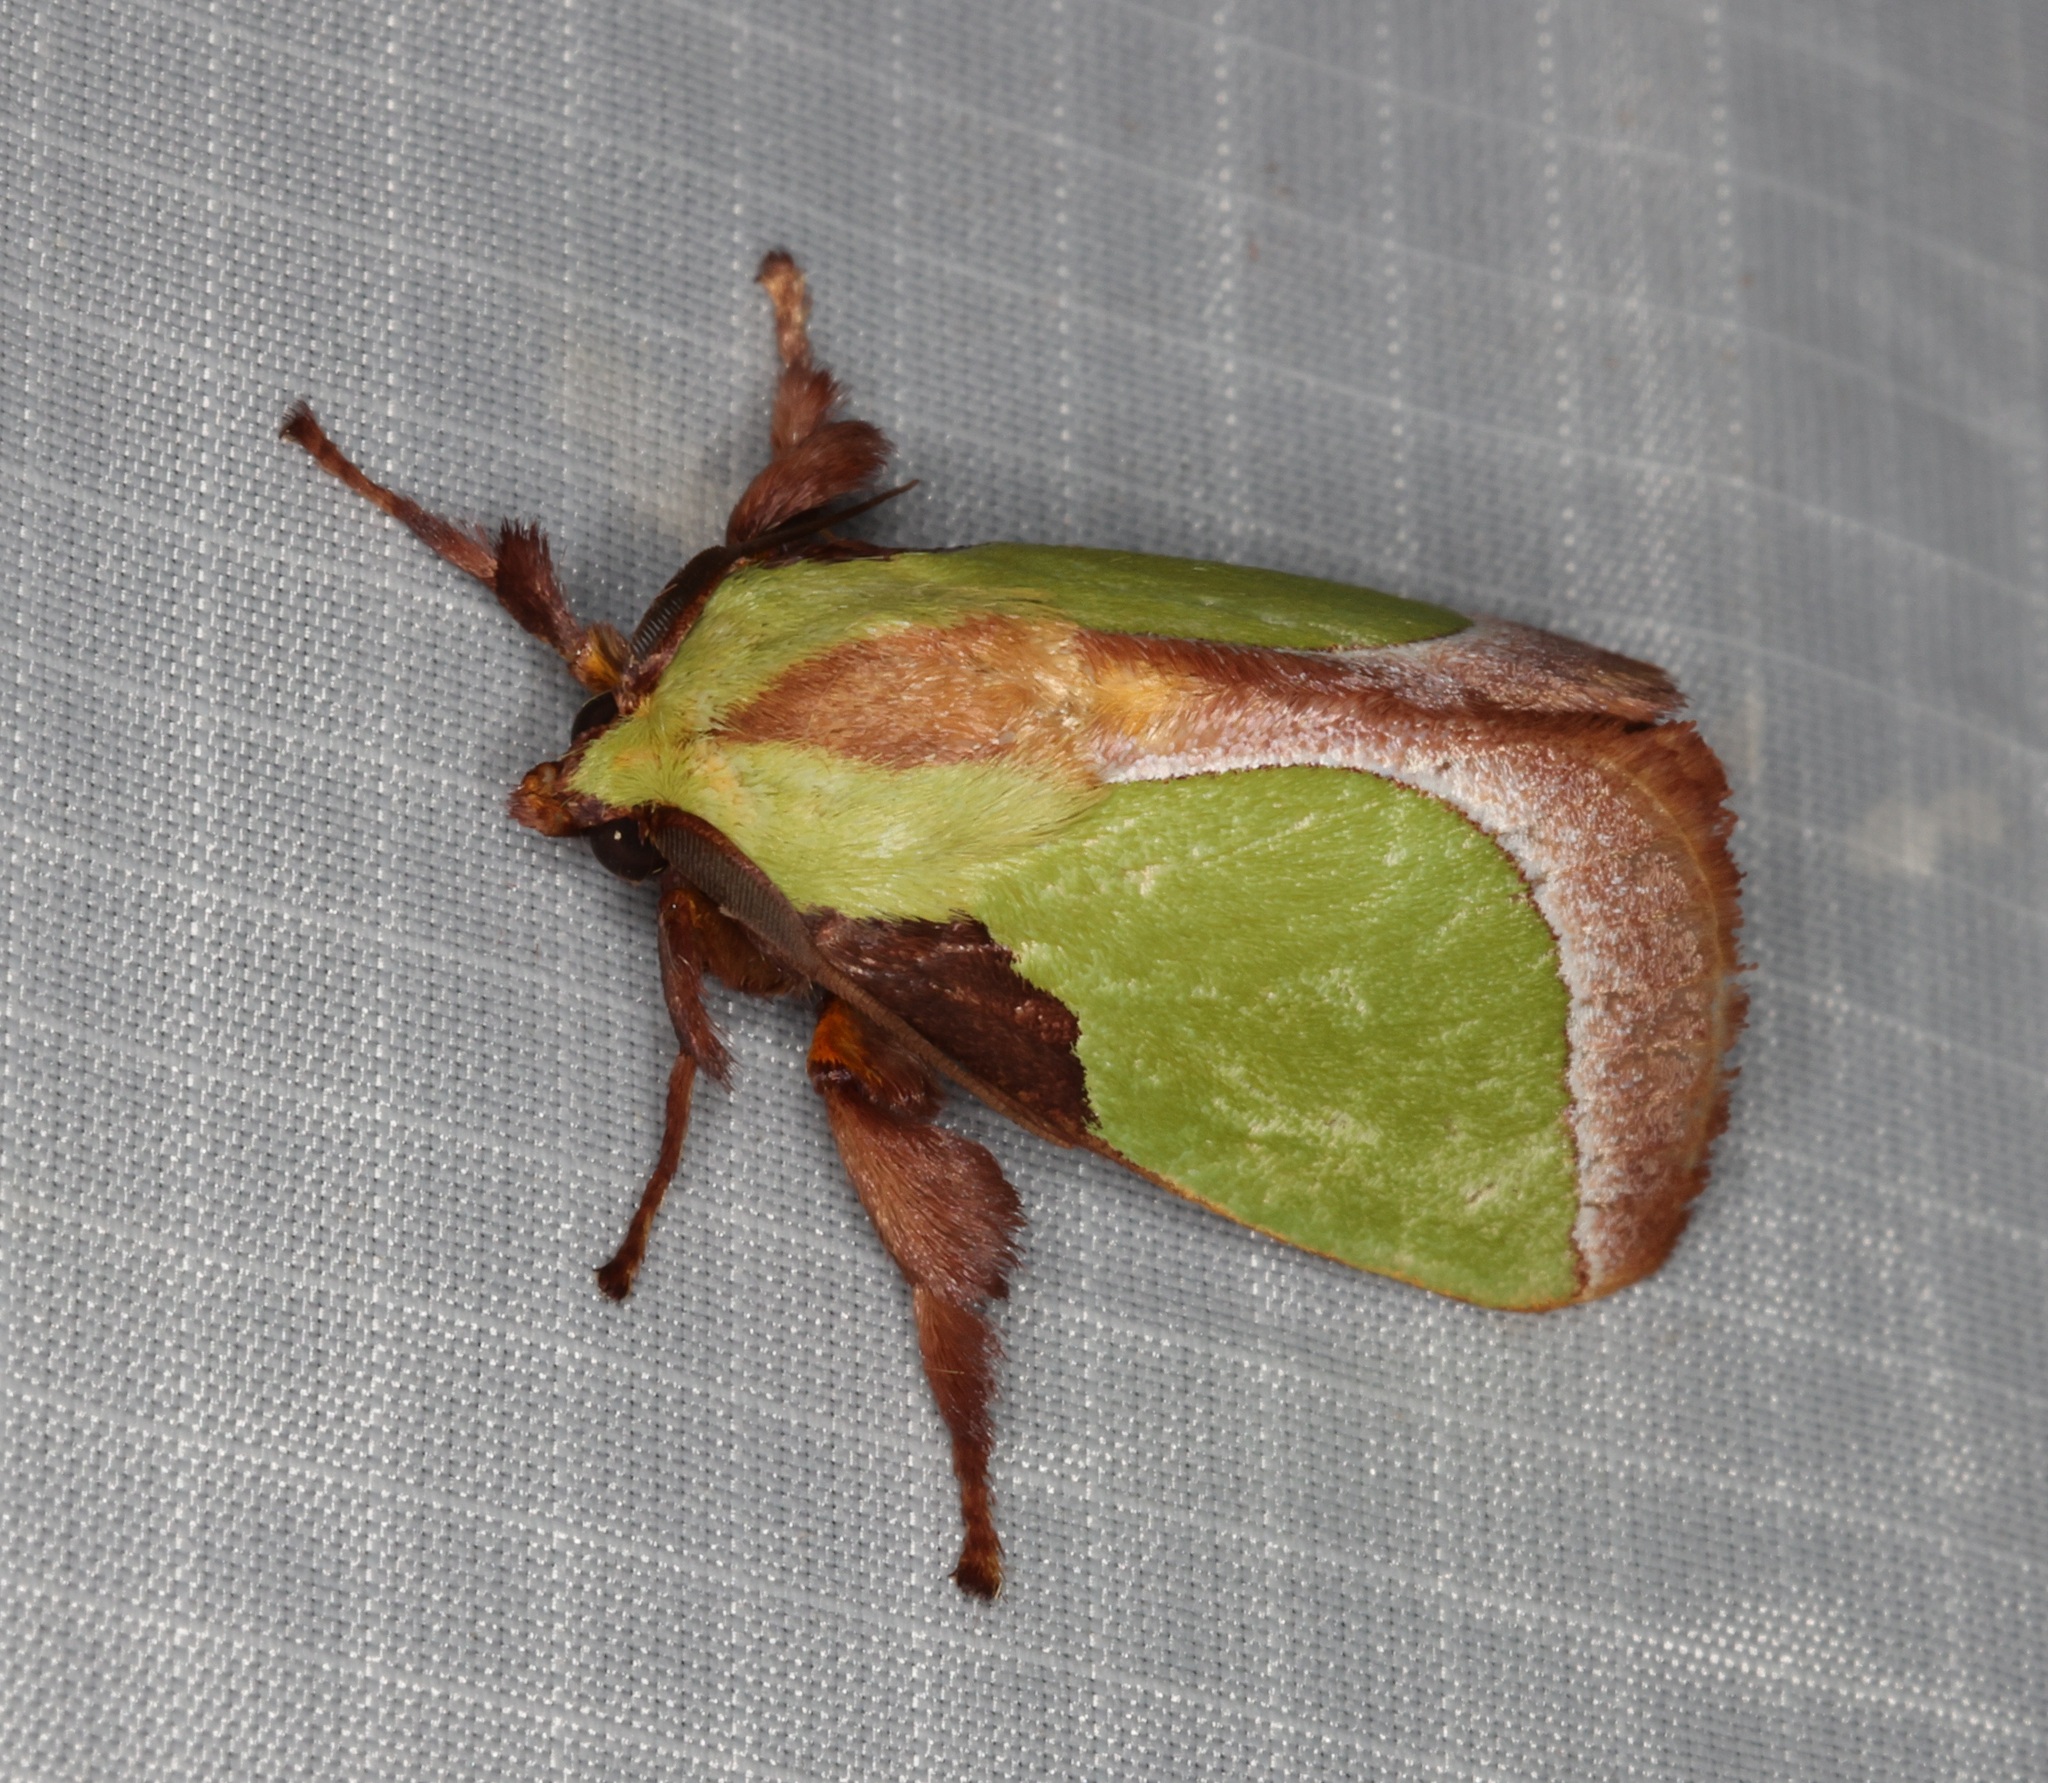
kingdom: Animalia
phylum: Arthropoda
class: Insecta
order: Lepidoptera
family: Limacodidae
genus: Melinaria
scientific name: Melinaria campagnei
